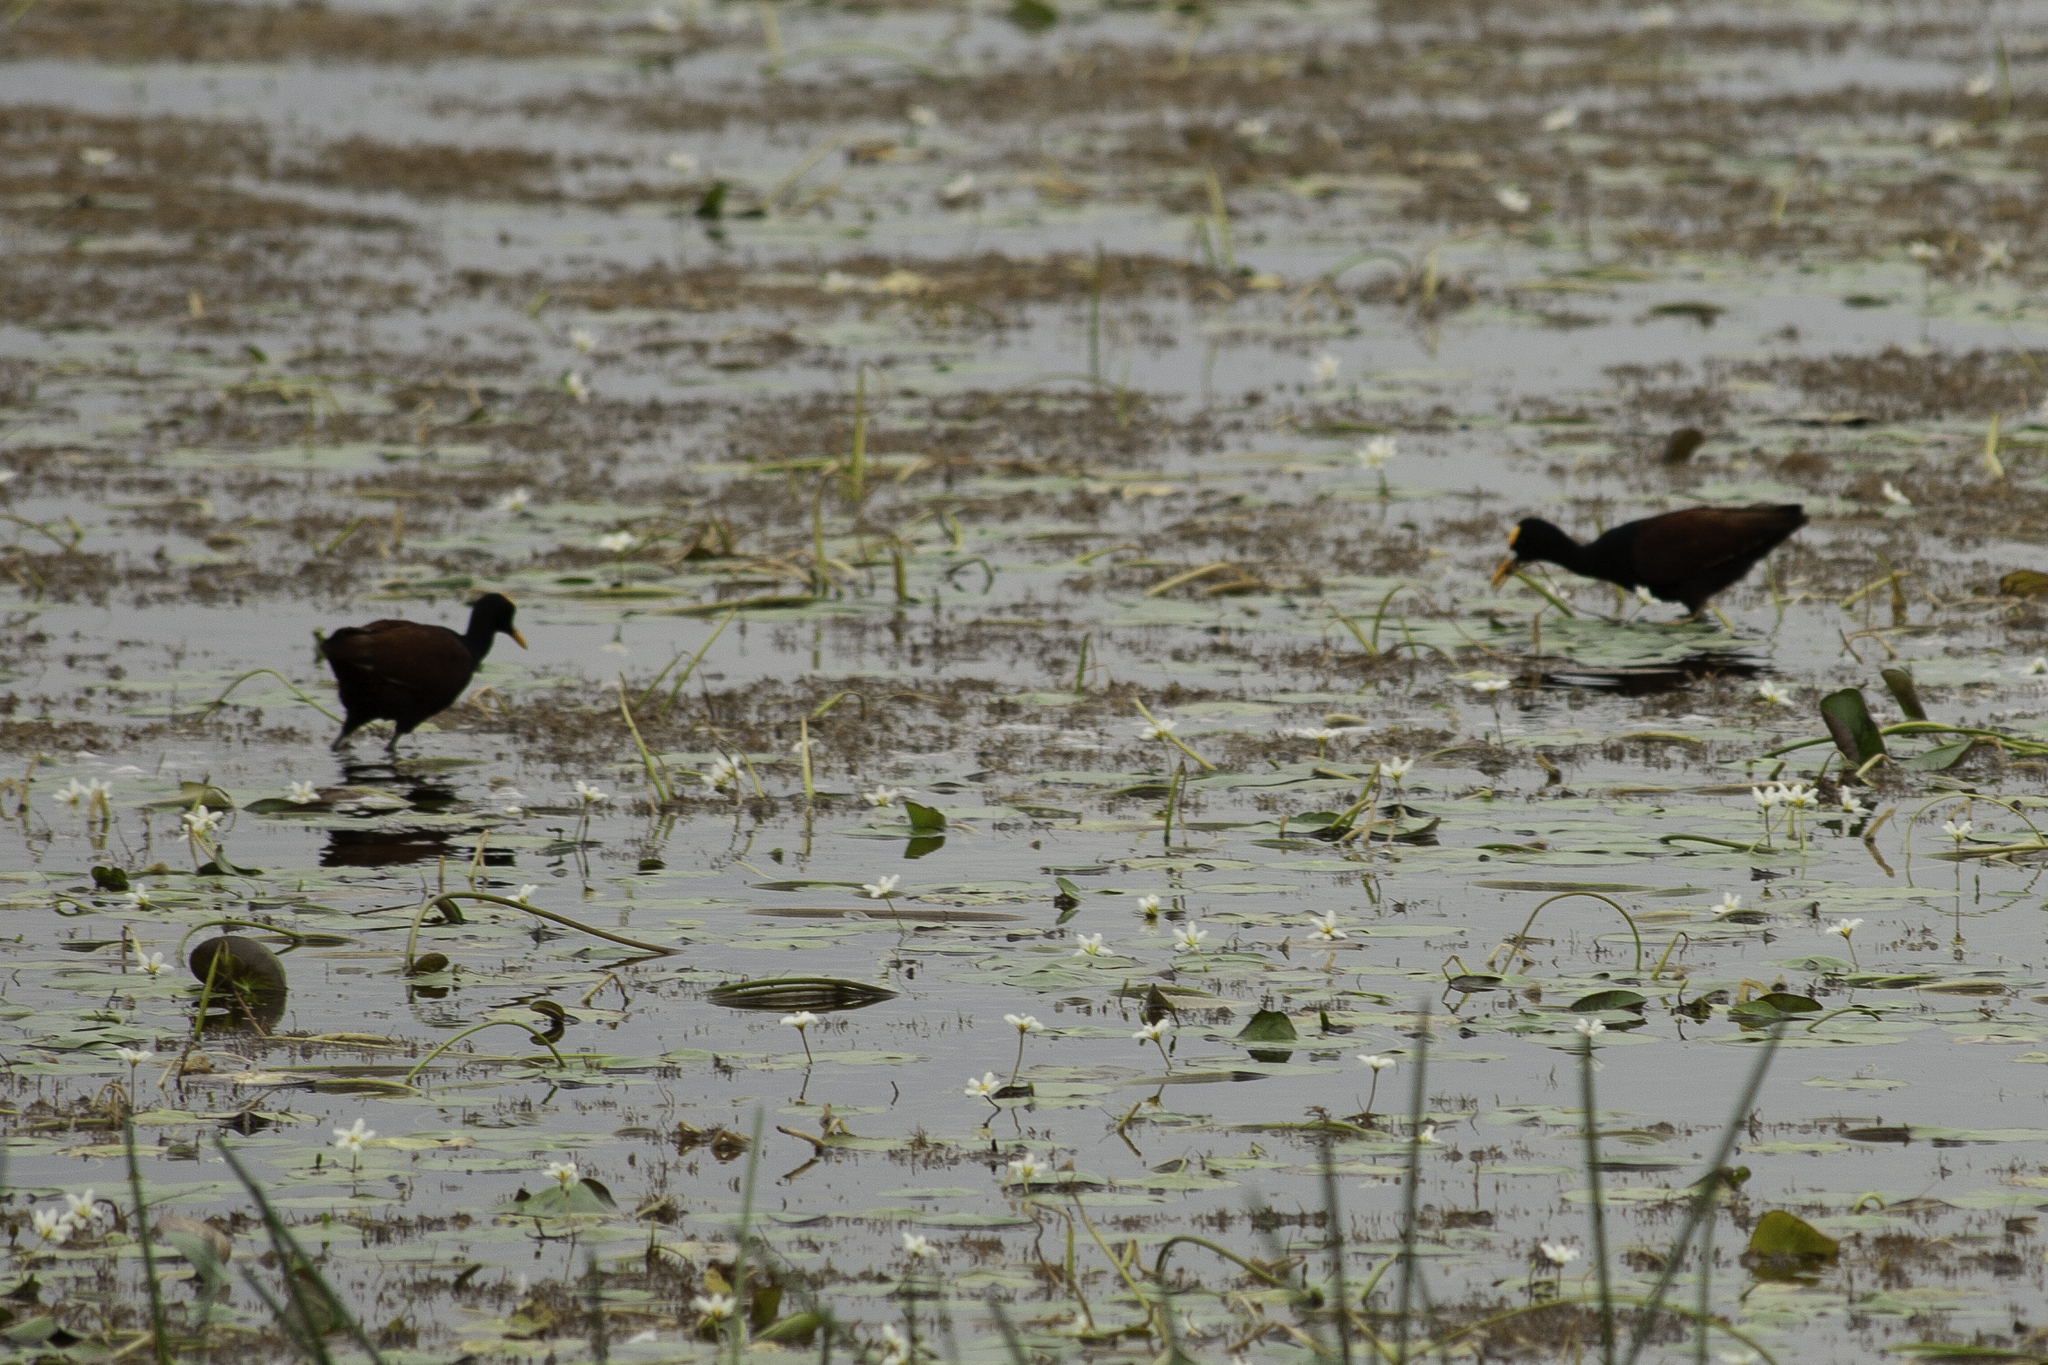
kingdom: Animalia
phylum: Chordata
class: Aves
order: Charadriiformes
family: Jacanidae
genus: Jacana
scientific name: Jacana spinosa
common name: Northern jacana
